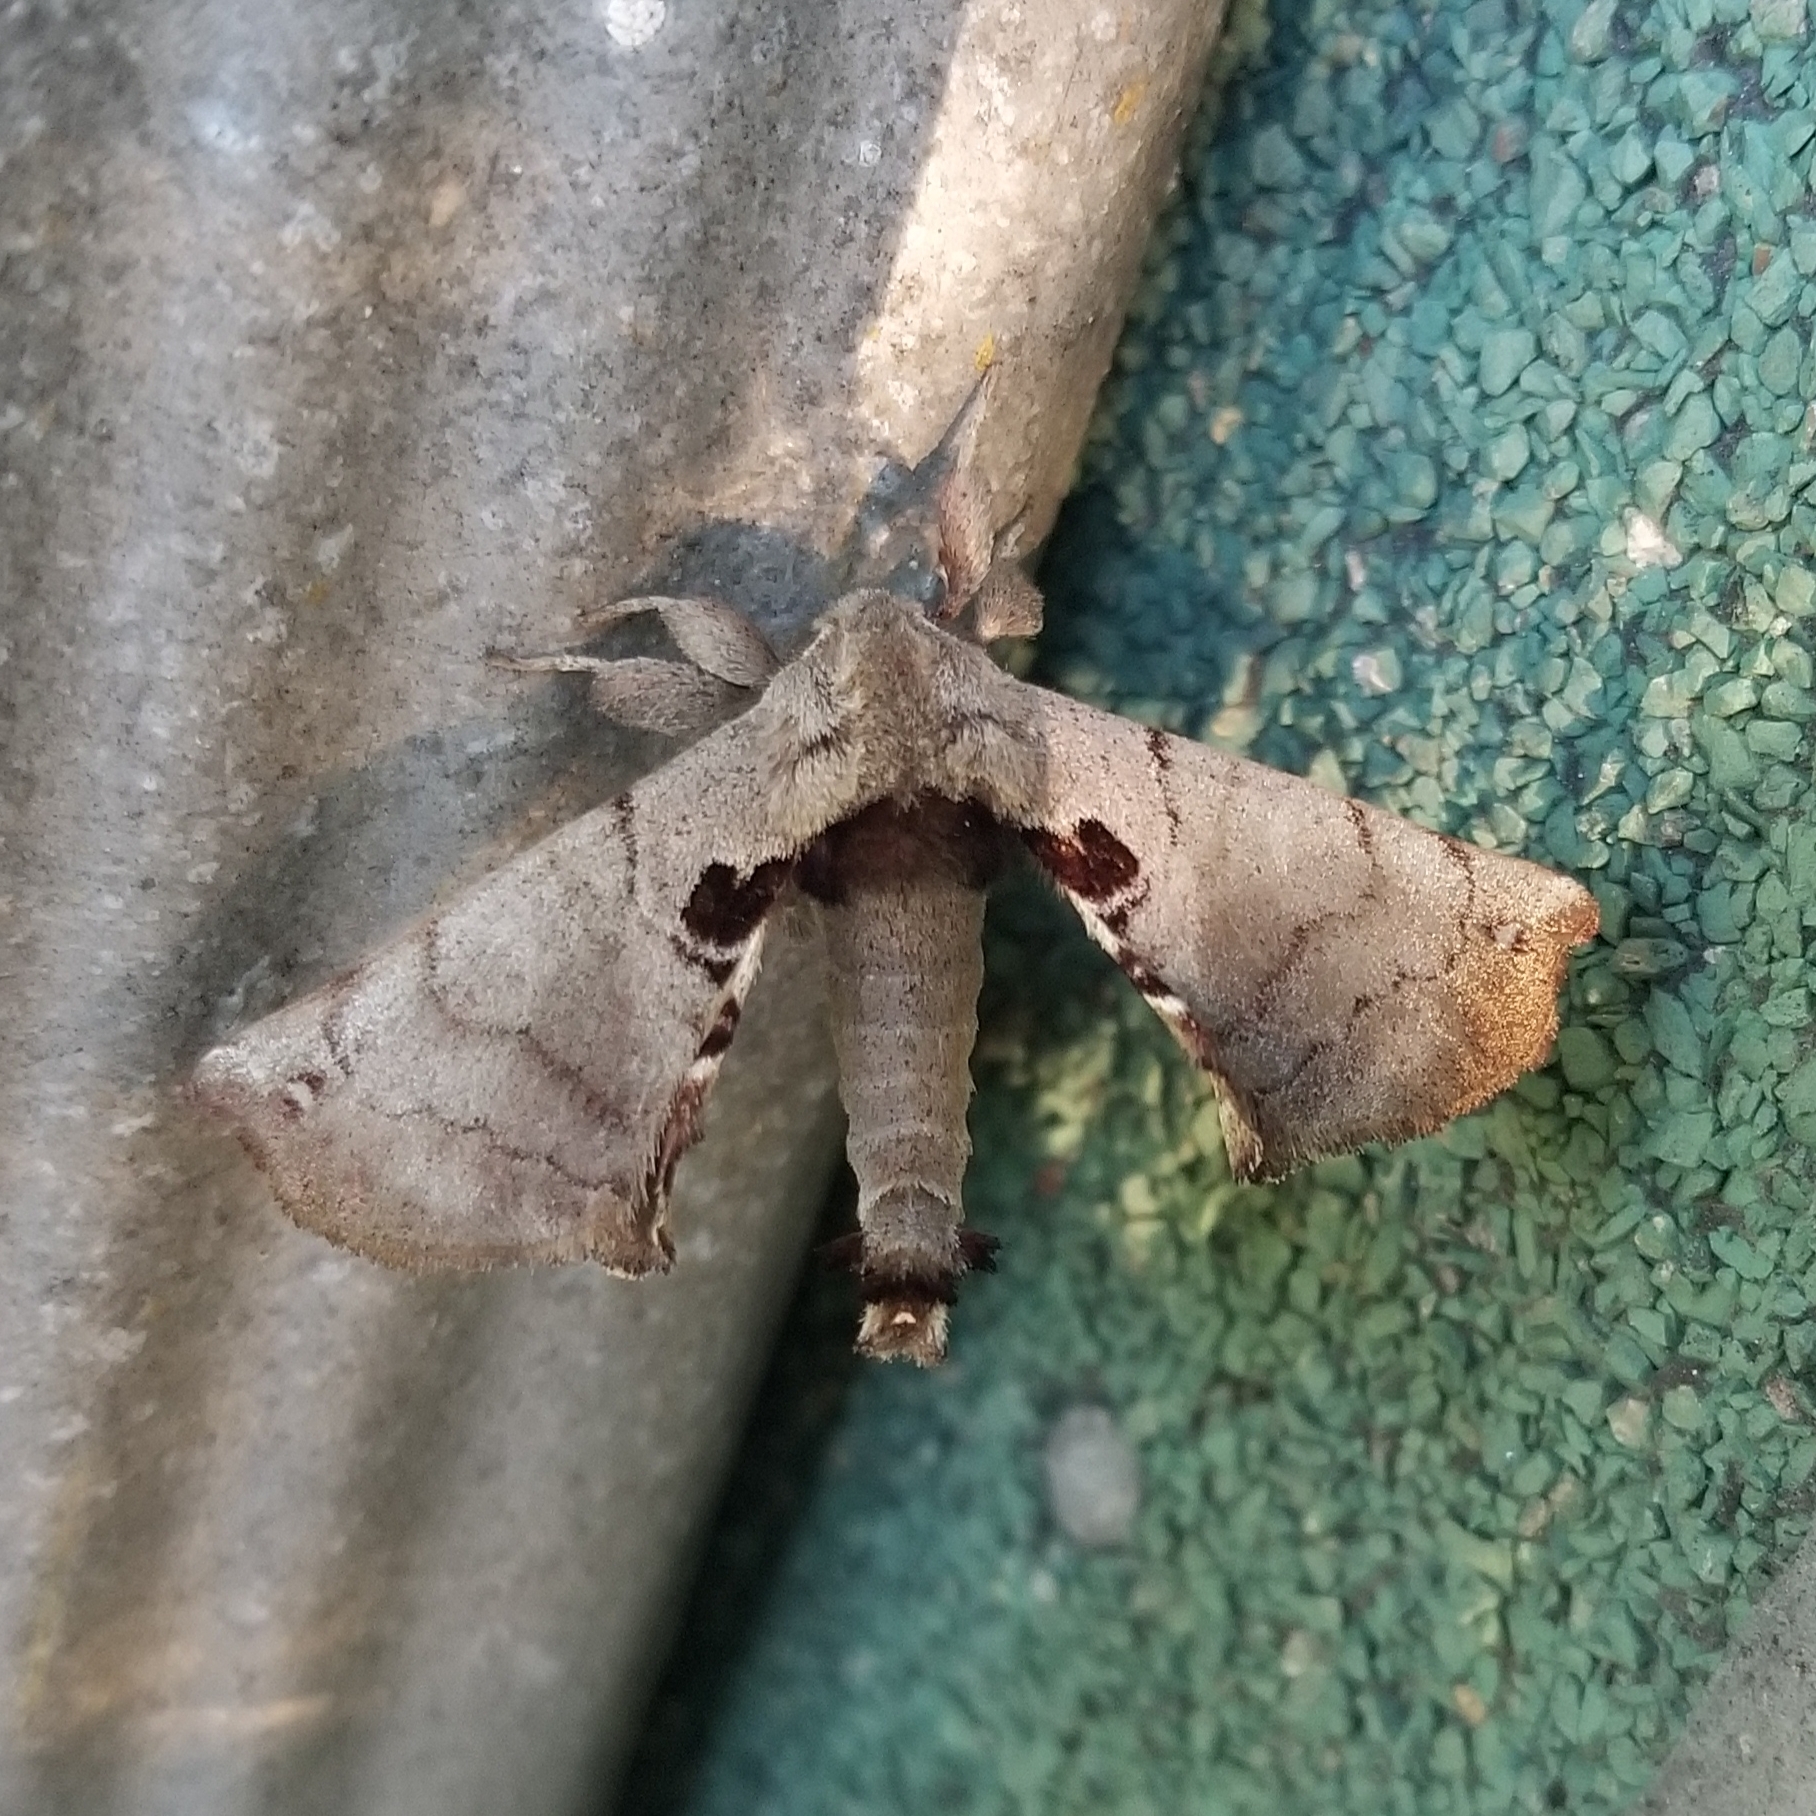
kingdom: Animalia
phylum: Arthropoda
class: Insecta
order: Lepidoptera
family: Apatelodidae
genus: Hygrochroa
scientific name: Hygrochroa Apatelodes torrefacta
